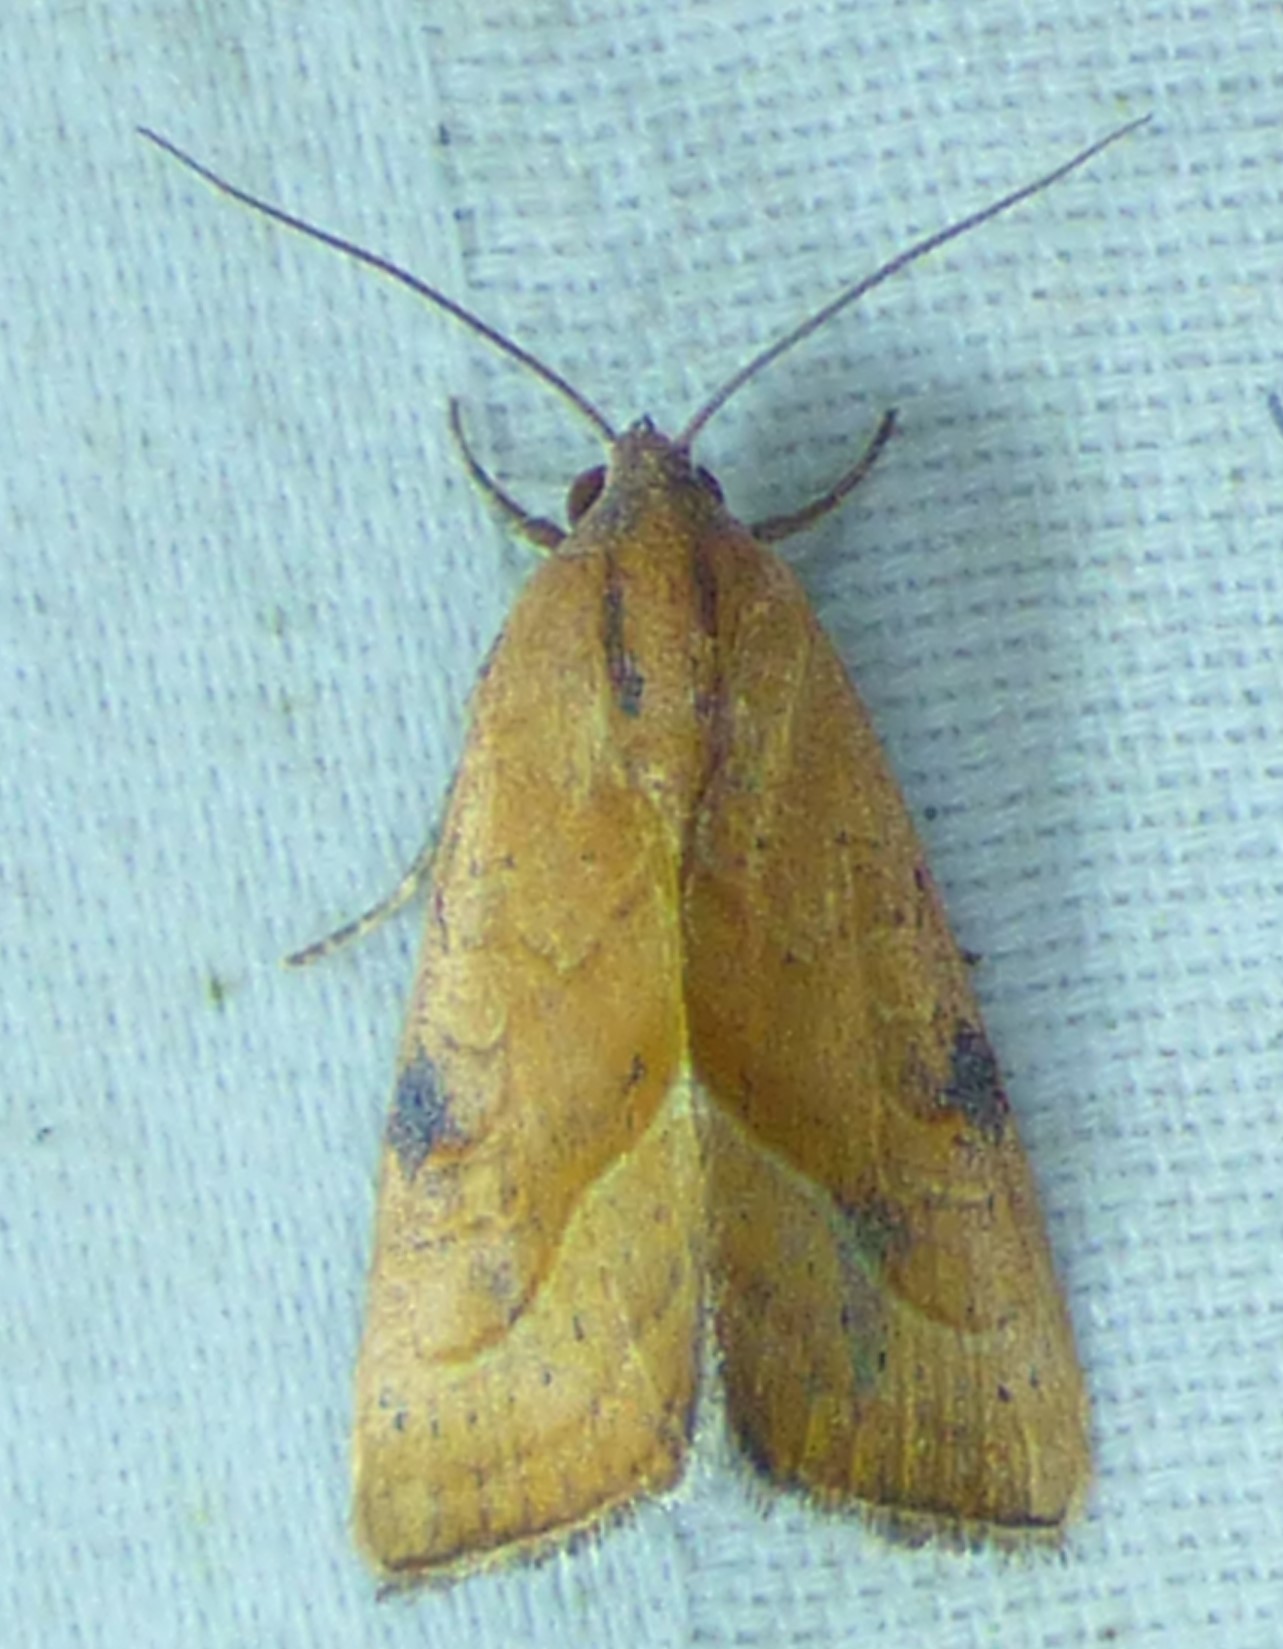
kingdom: Animalia
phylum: Arthropoda
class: Insecta
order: Lepidoptera
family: Noctuidae
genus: Galgula
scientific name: Galgula partita
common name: Wedgeling
